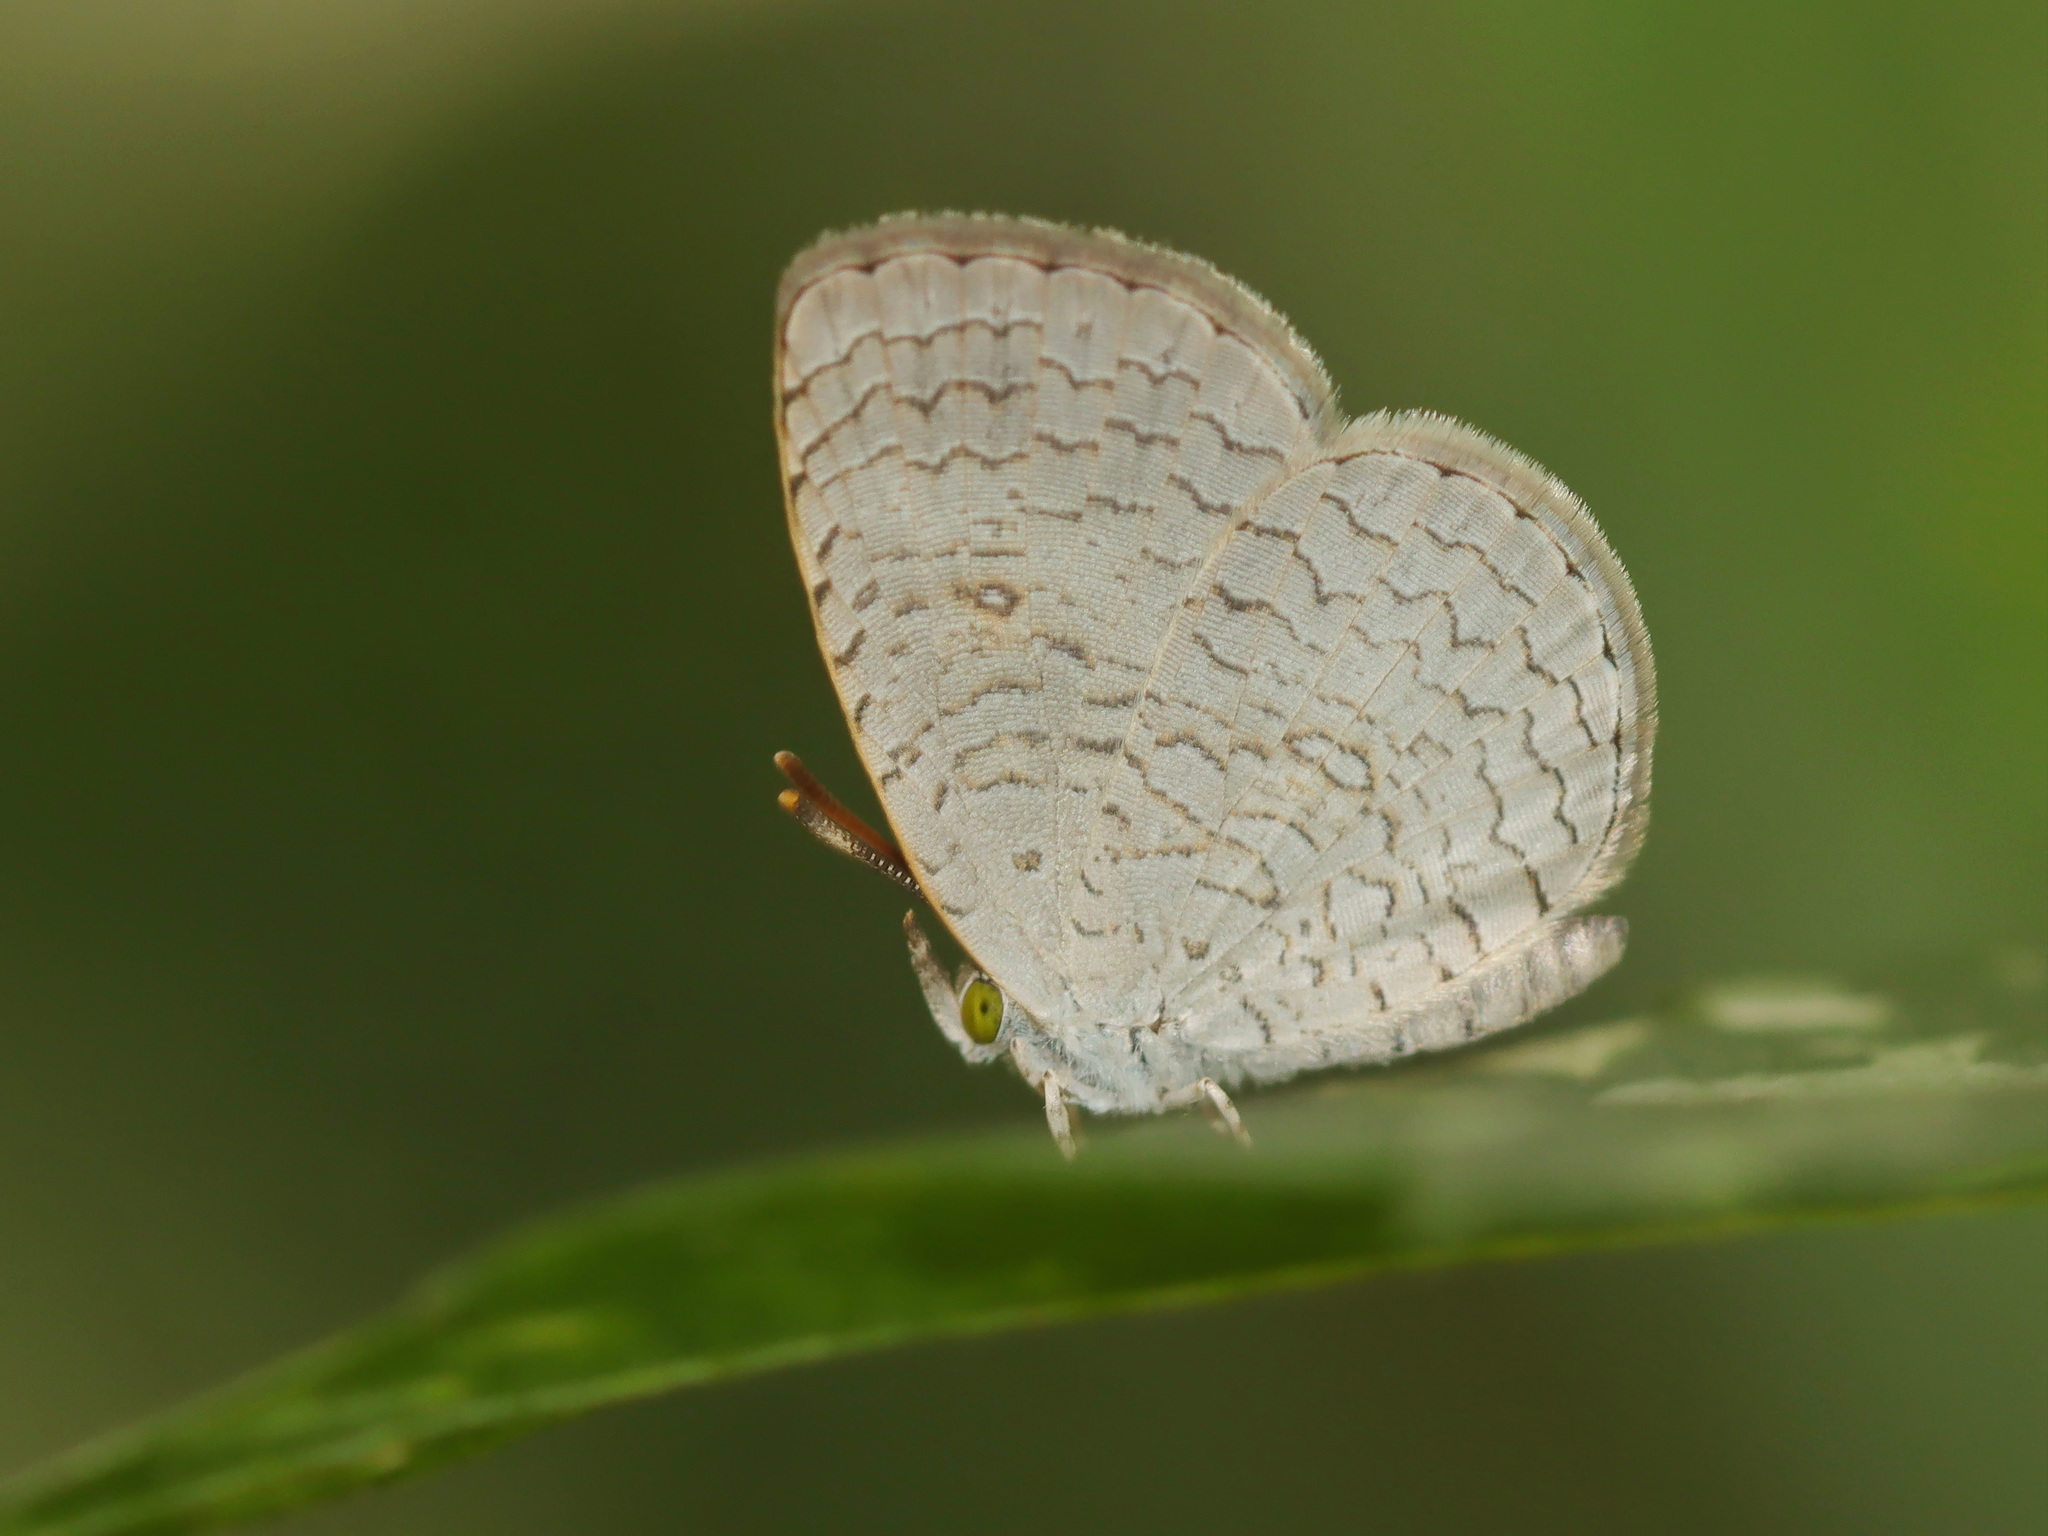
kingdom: Animalia
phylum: Arthropoda
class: Insecta
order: Lepidoptera
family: Lycaenidae
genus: Spalgis
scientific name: Spalgis epius
